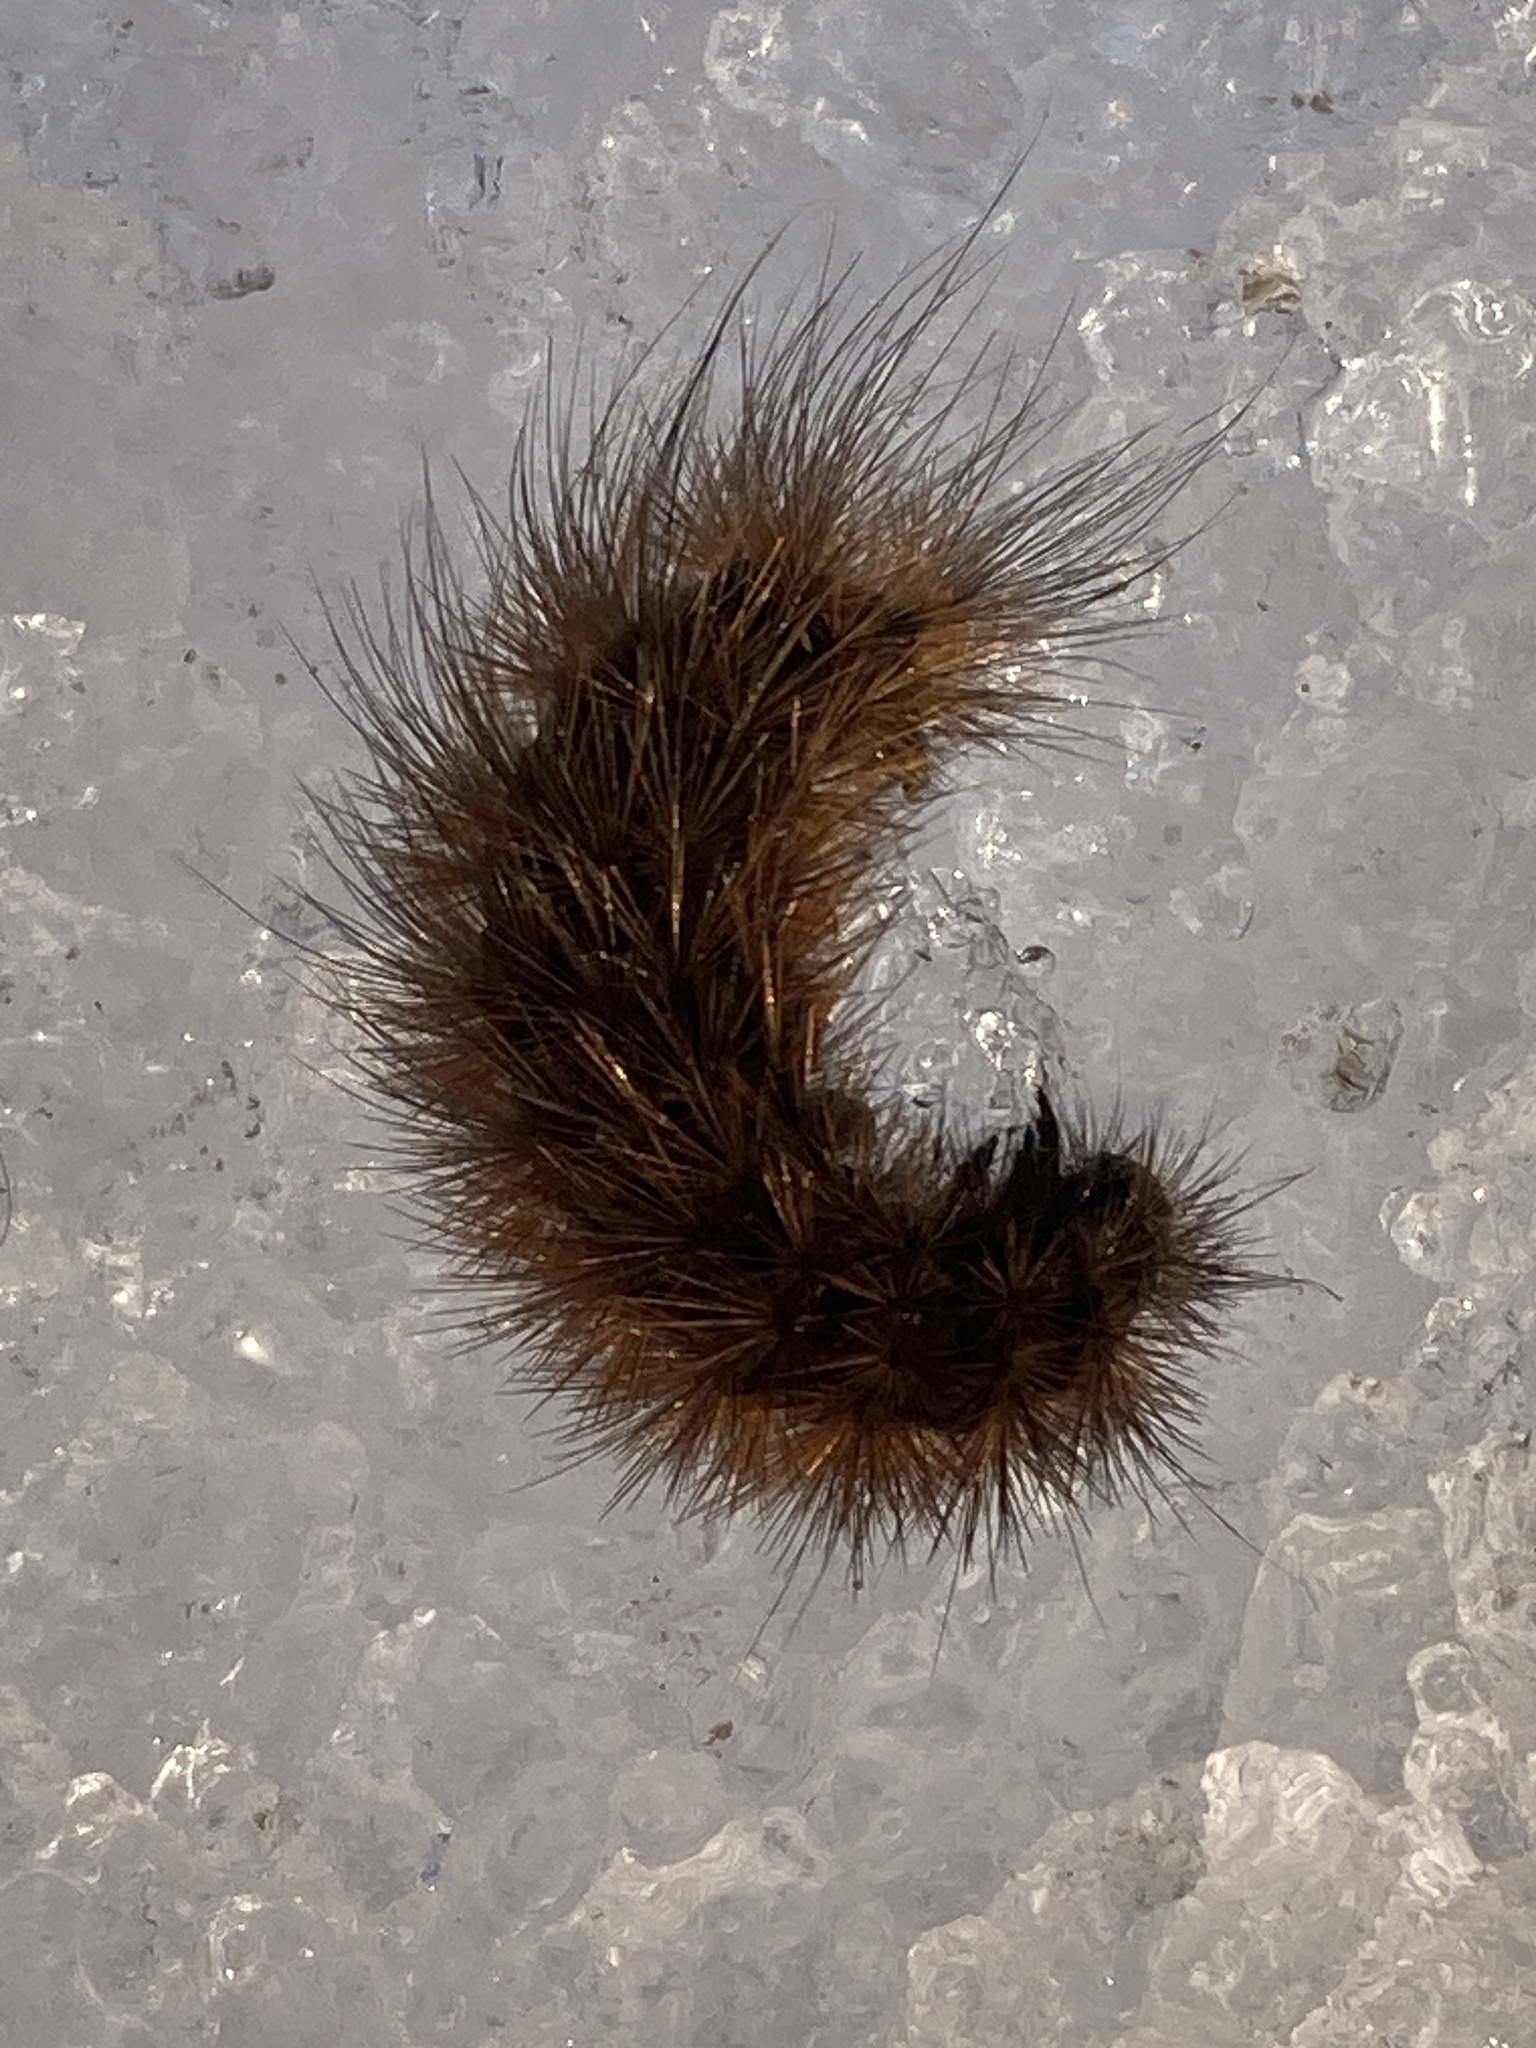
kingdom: Animalia
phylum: Arthropoda
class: Insecta
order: Lepidoptera
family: Erebidae
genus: Phragmatobia
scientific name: Phragmatobia fuliginosa
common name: Ruby tiger
